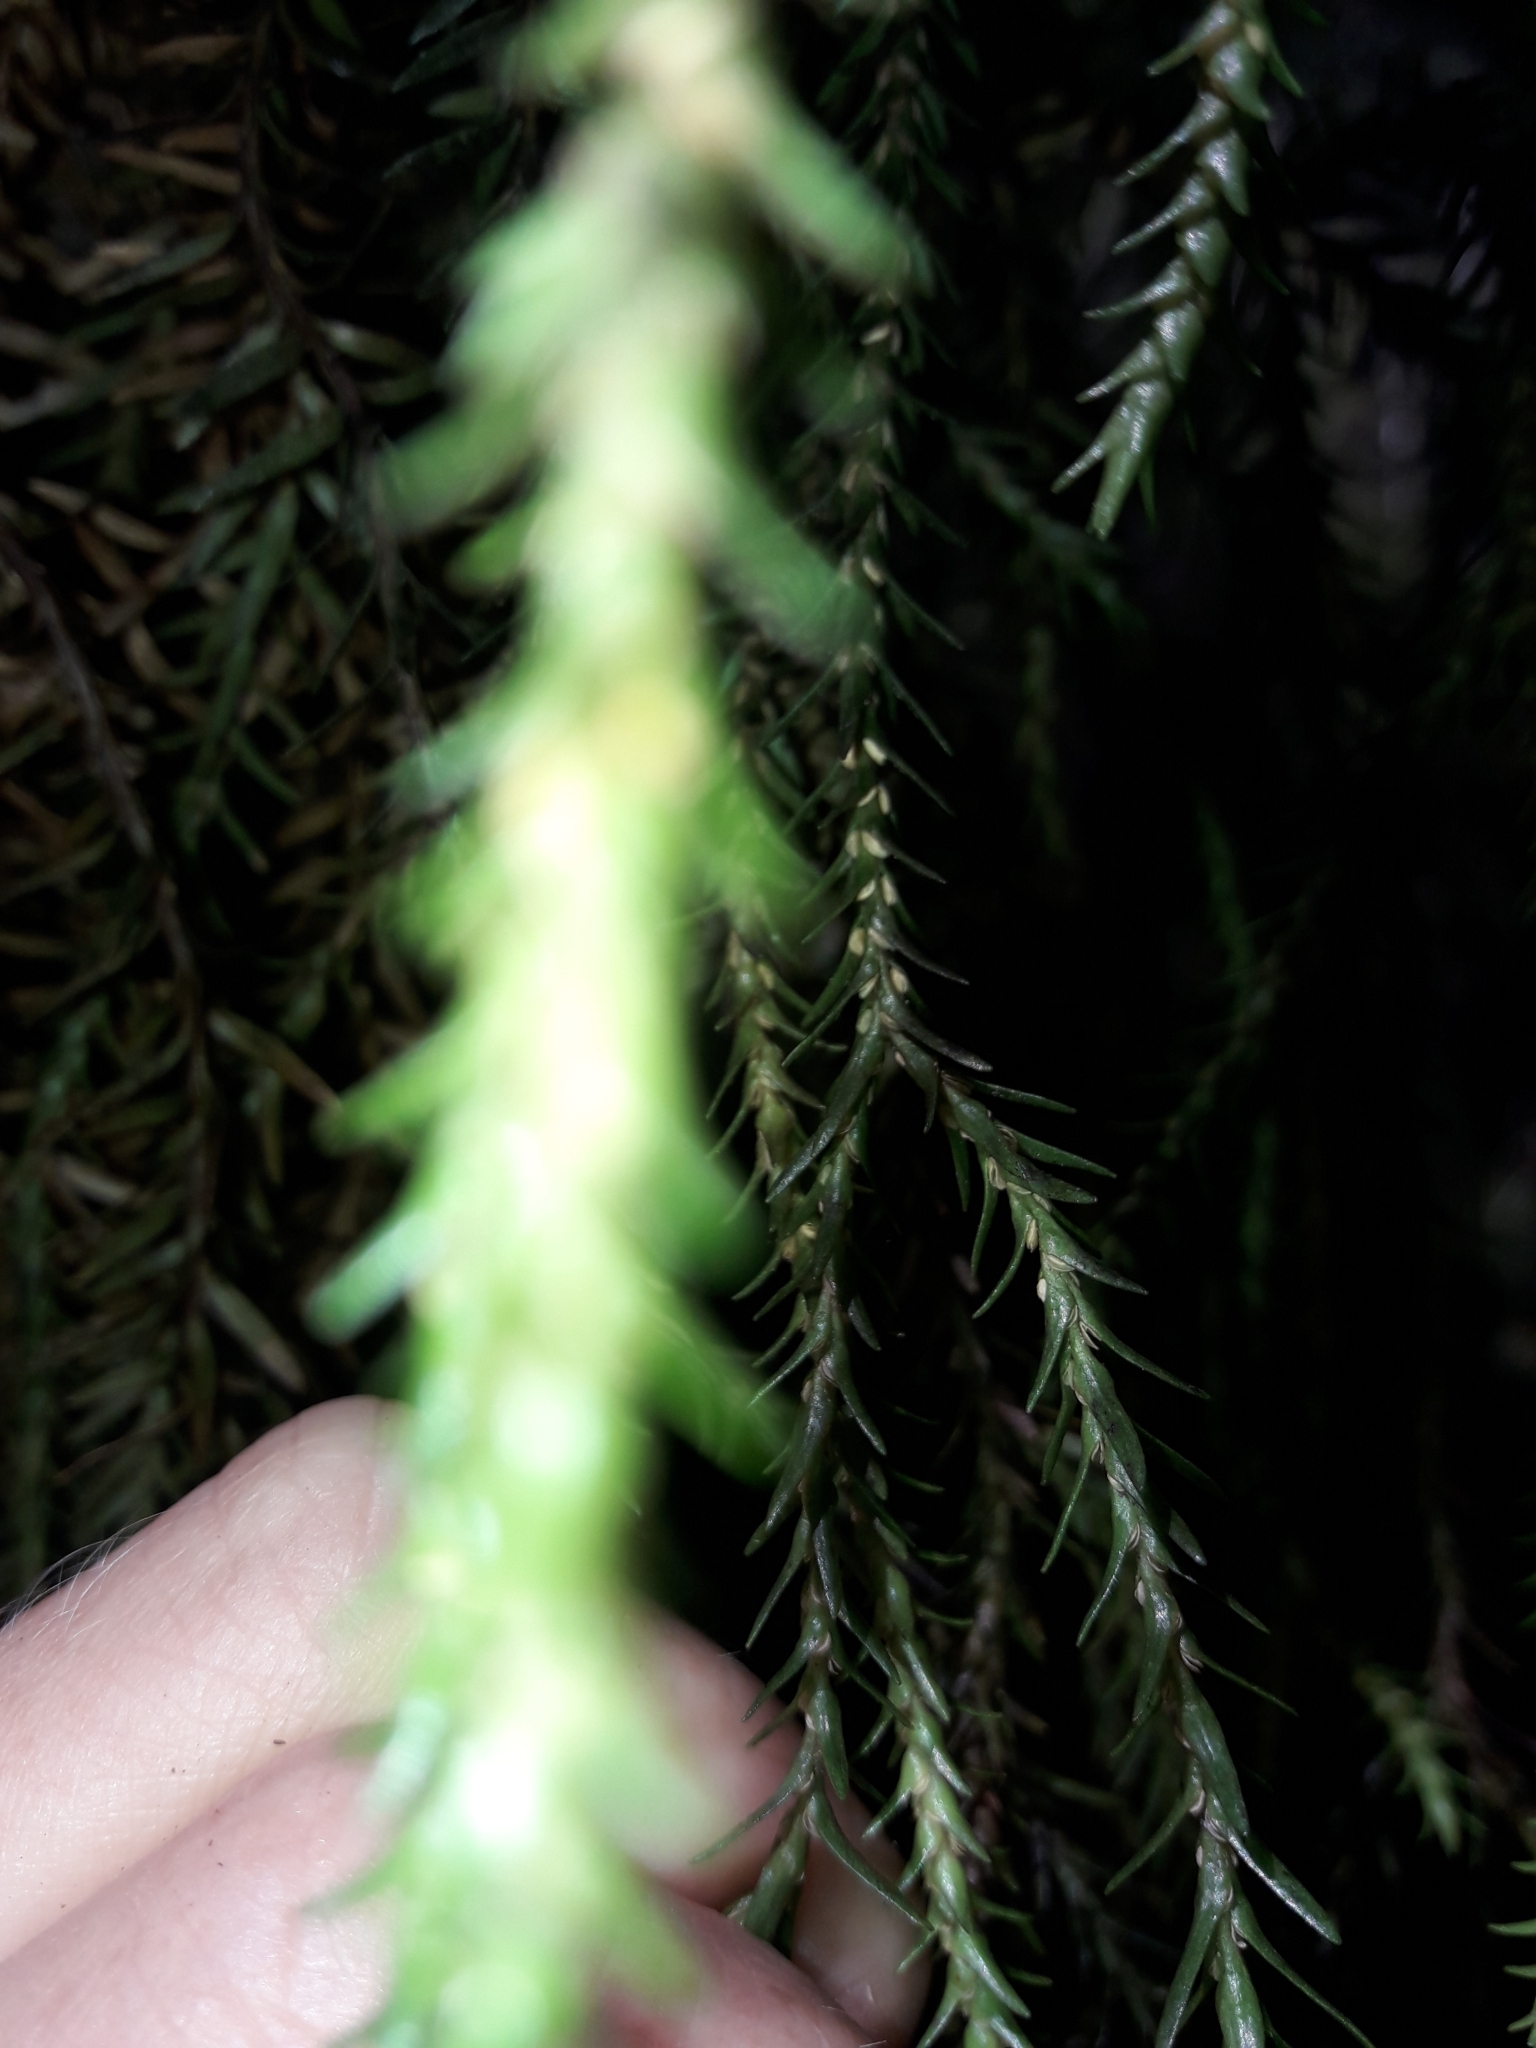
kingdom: Plantae
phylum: Tracheophyta
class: Lycopodiopsida
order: Lycopodiales
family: Lycopodiaceae
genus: Phlegmariurus
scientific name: Phlegmariurus varius
